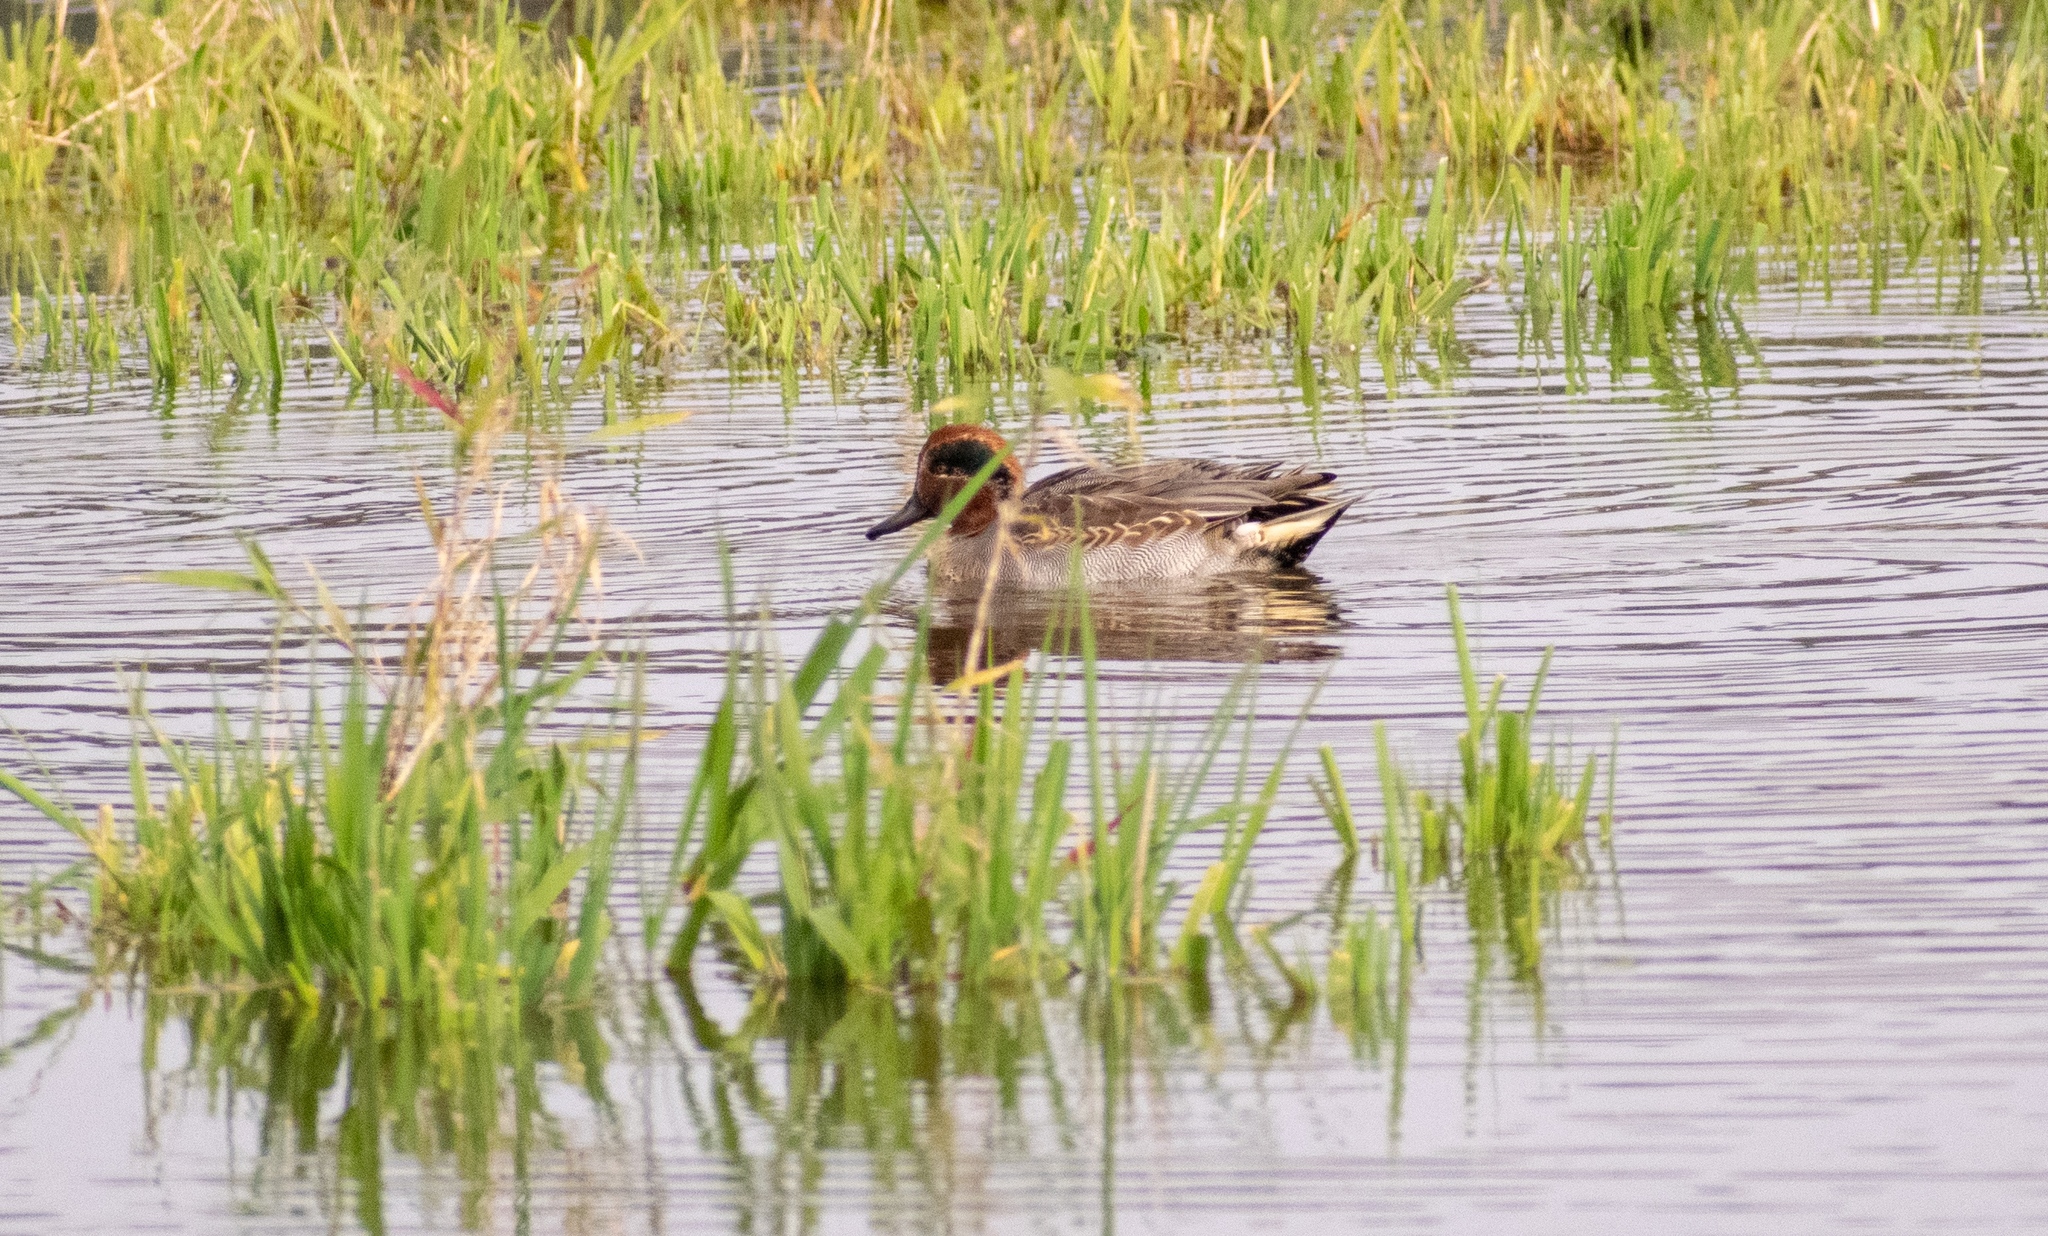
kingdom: Animalia
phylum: Chordata
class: Aves
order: Anseriformes
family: Anatidae
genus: Anas
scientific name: Anas crecca
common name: Eurasian teal
